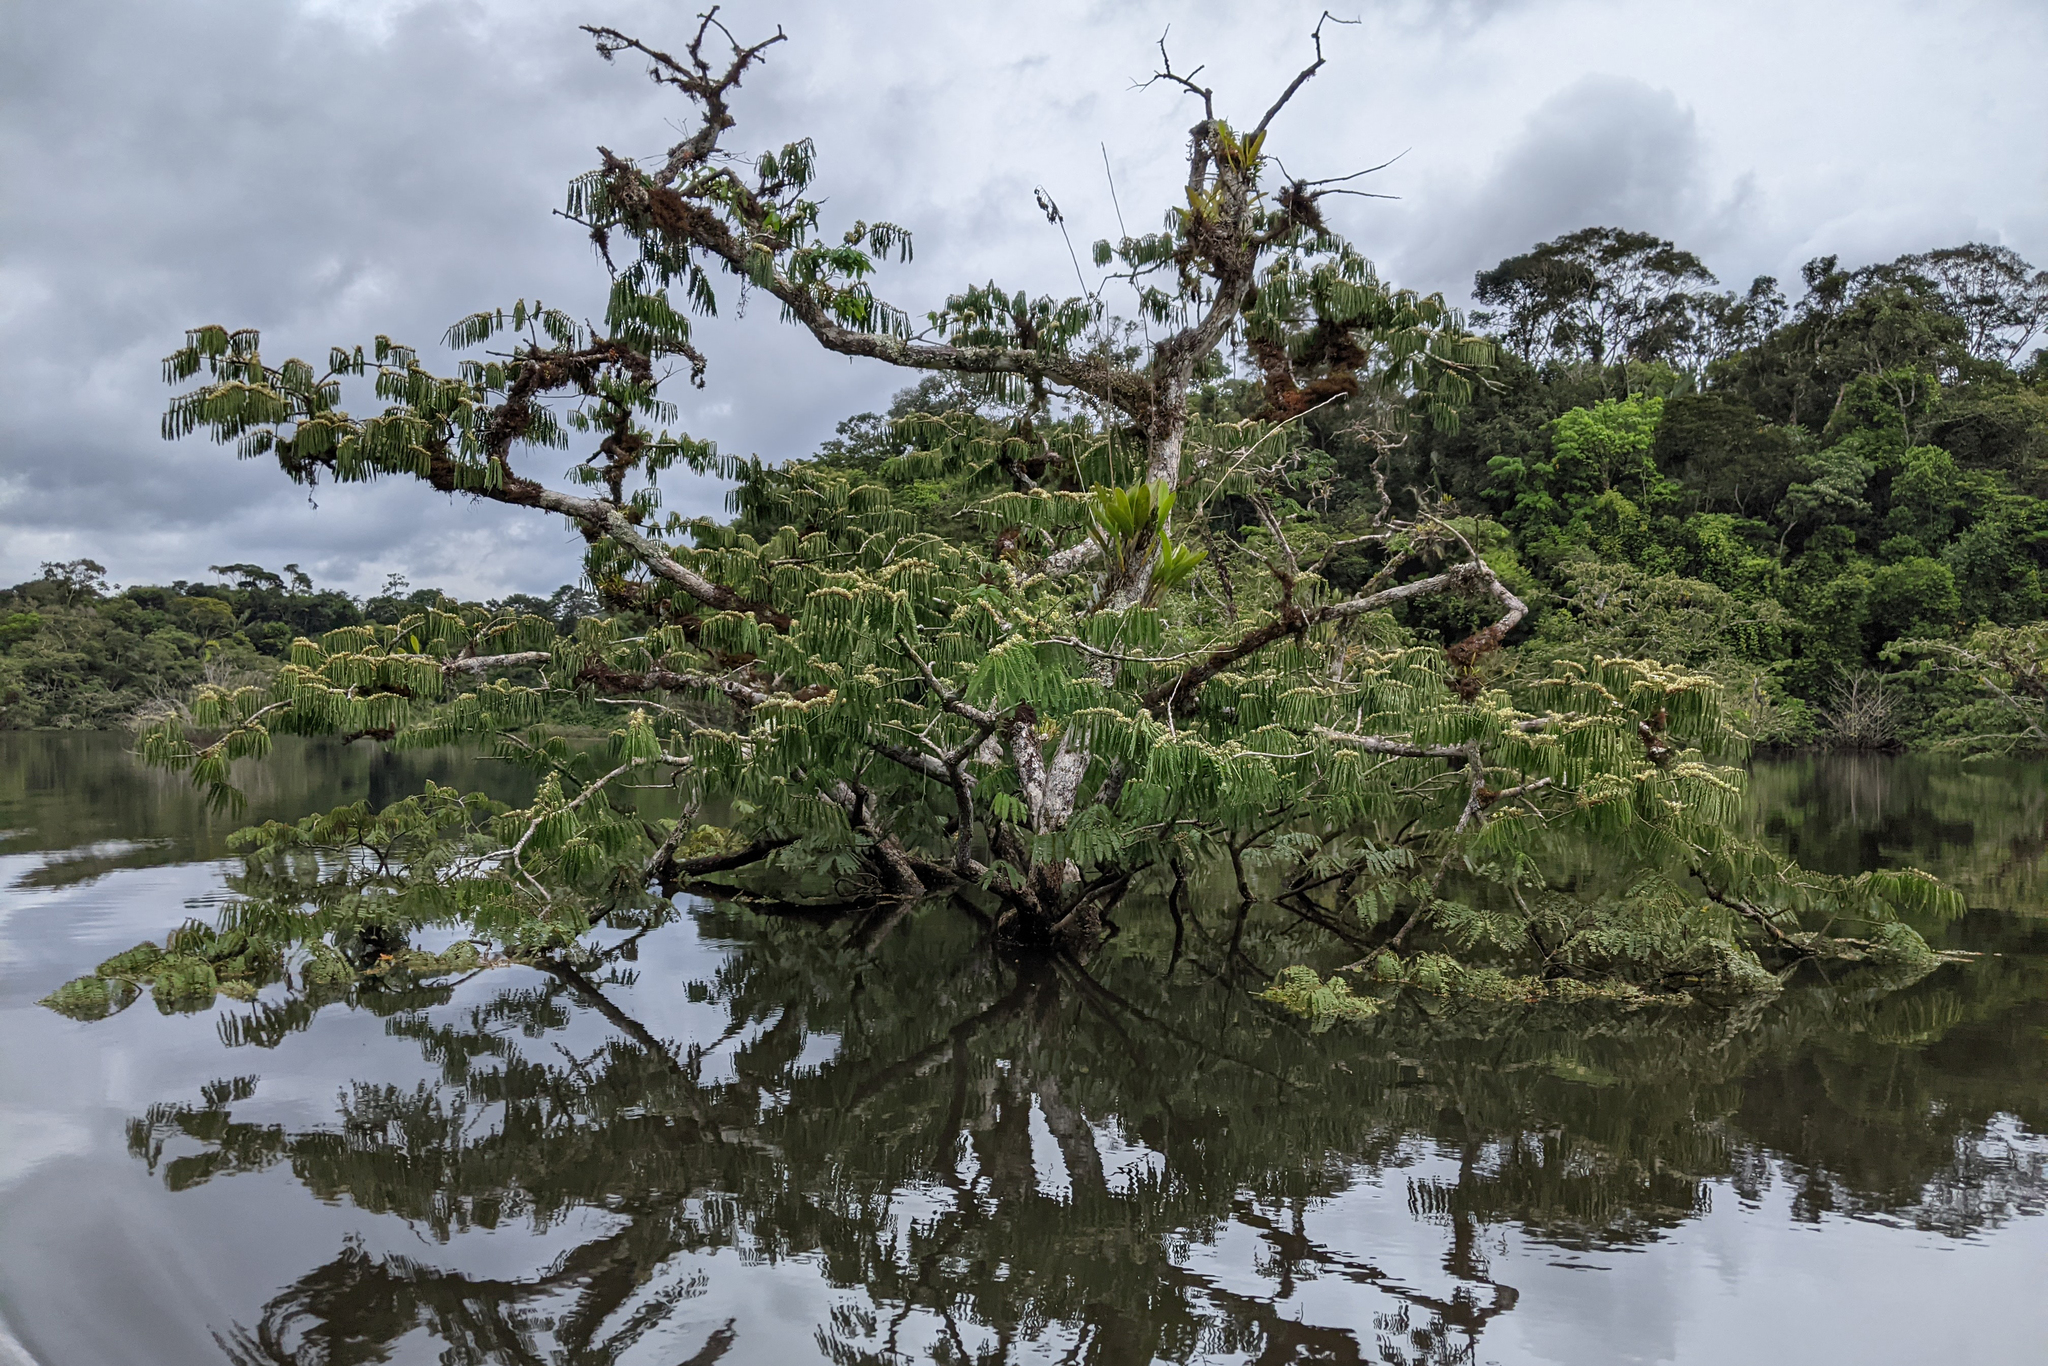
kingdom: Plantae
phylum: Tracheophyta
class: Magnoliopsida
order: Fabales
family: Fabaceae
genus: Macrolobium
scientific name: Macrolobium acaciifolium
